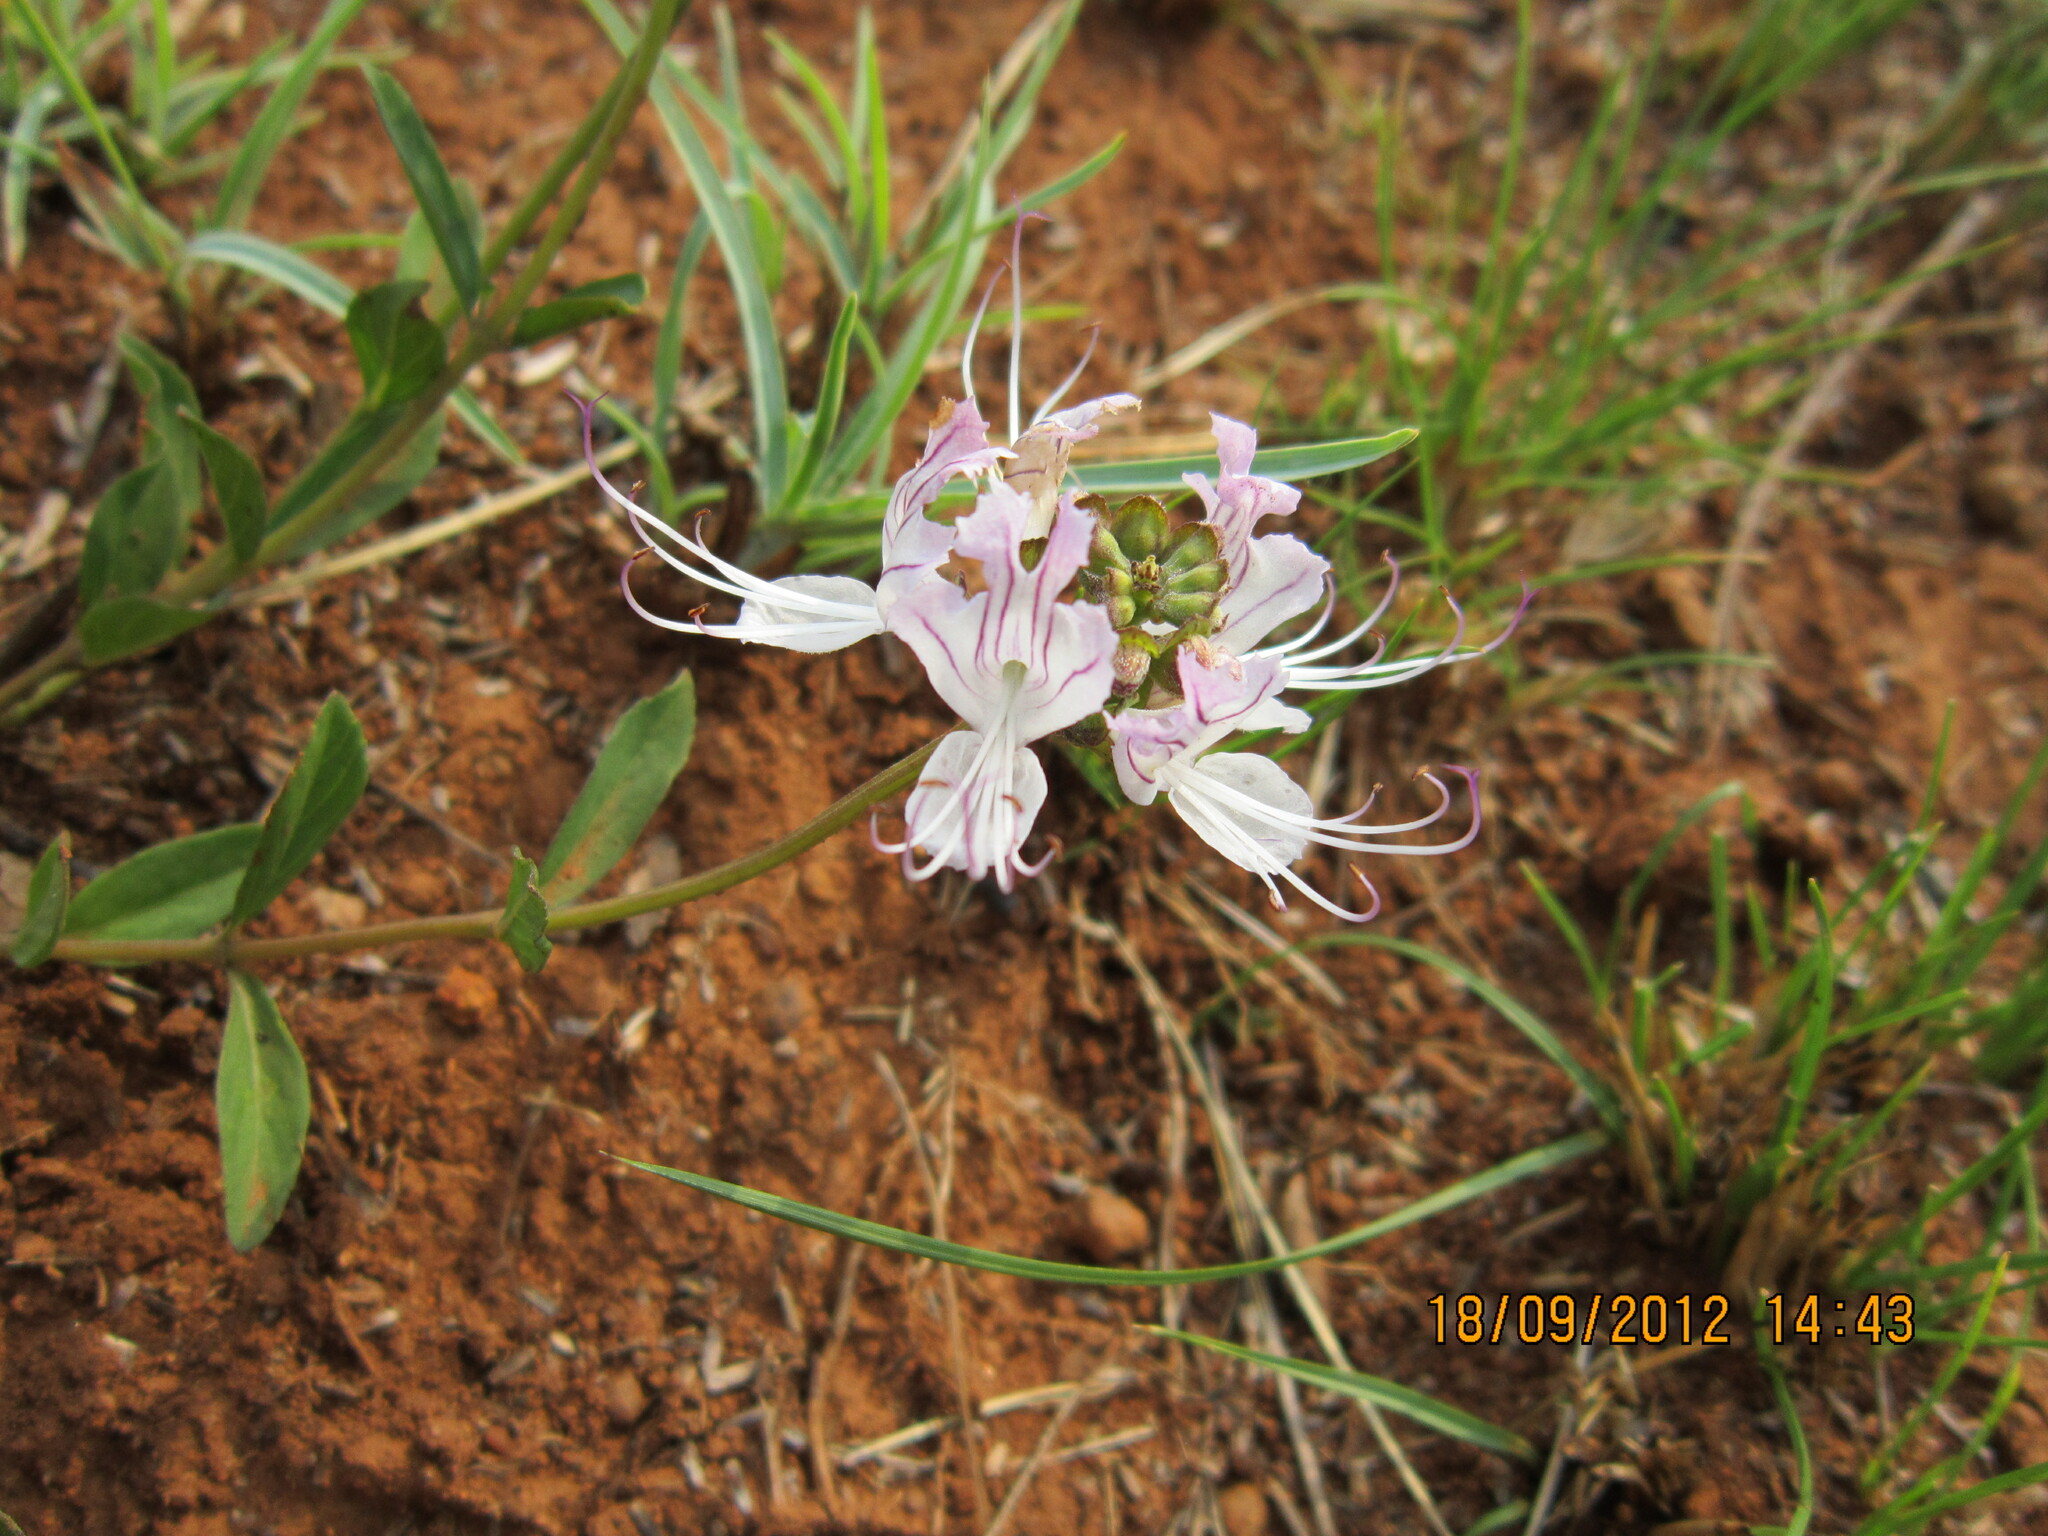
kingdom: Plantae
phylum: Tracheophyta
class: Magnoliopsida
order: Lamiales
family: Lamiaceae
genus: Ocimum
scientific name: Ocimum obovatum
